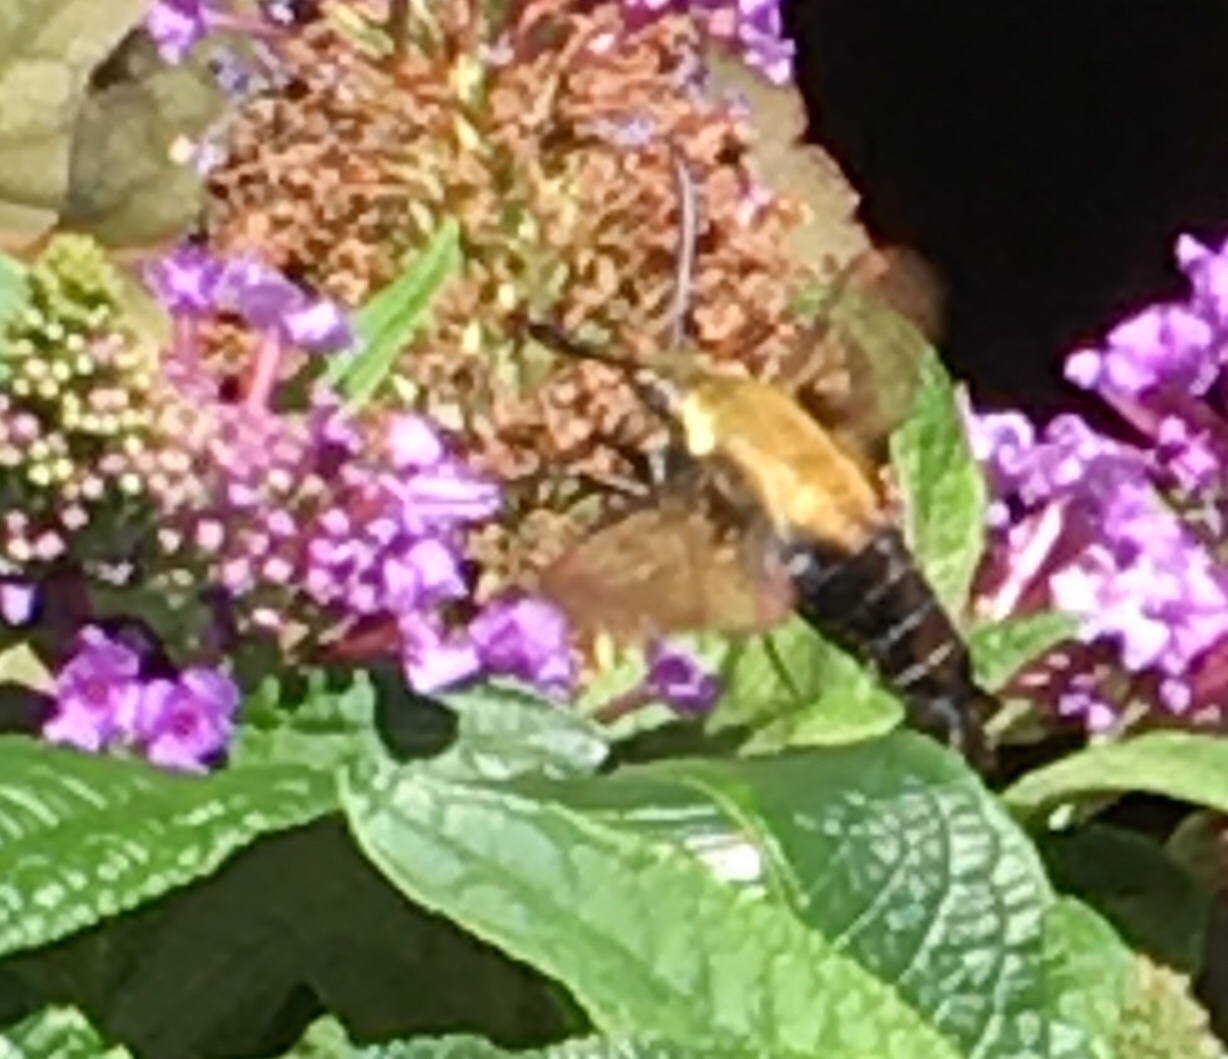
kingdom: Animalia
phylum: Arthropoda
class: Insecta
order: Lepidoptera
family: Sphingidae
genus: Hemaris
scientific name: Hemaris diffinis
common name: Bumblebee moth
